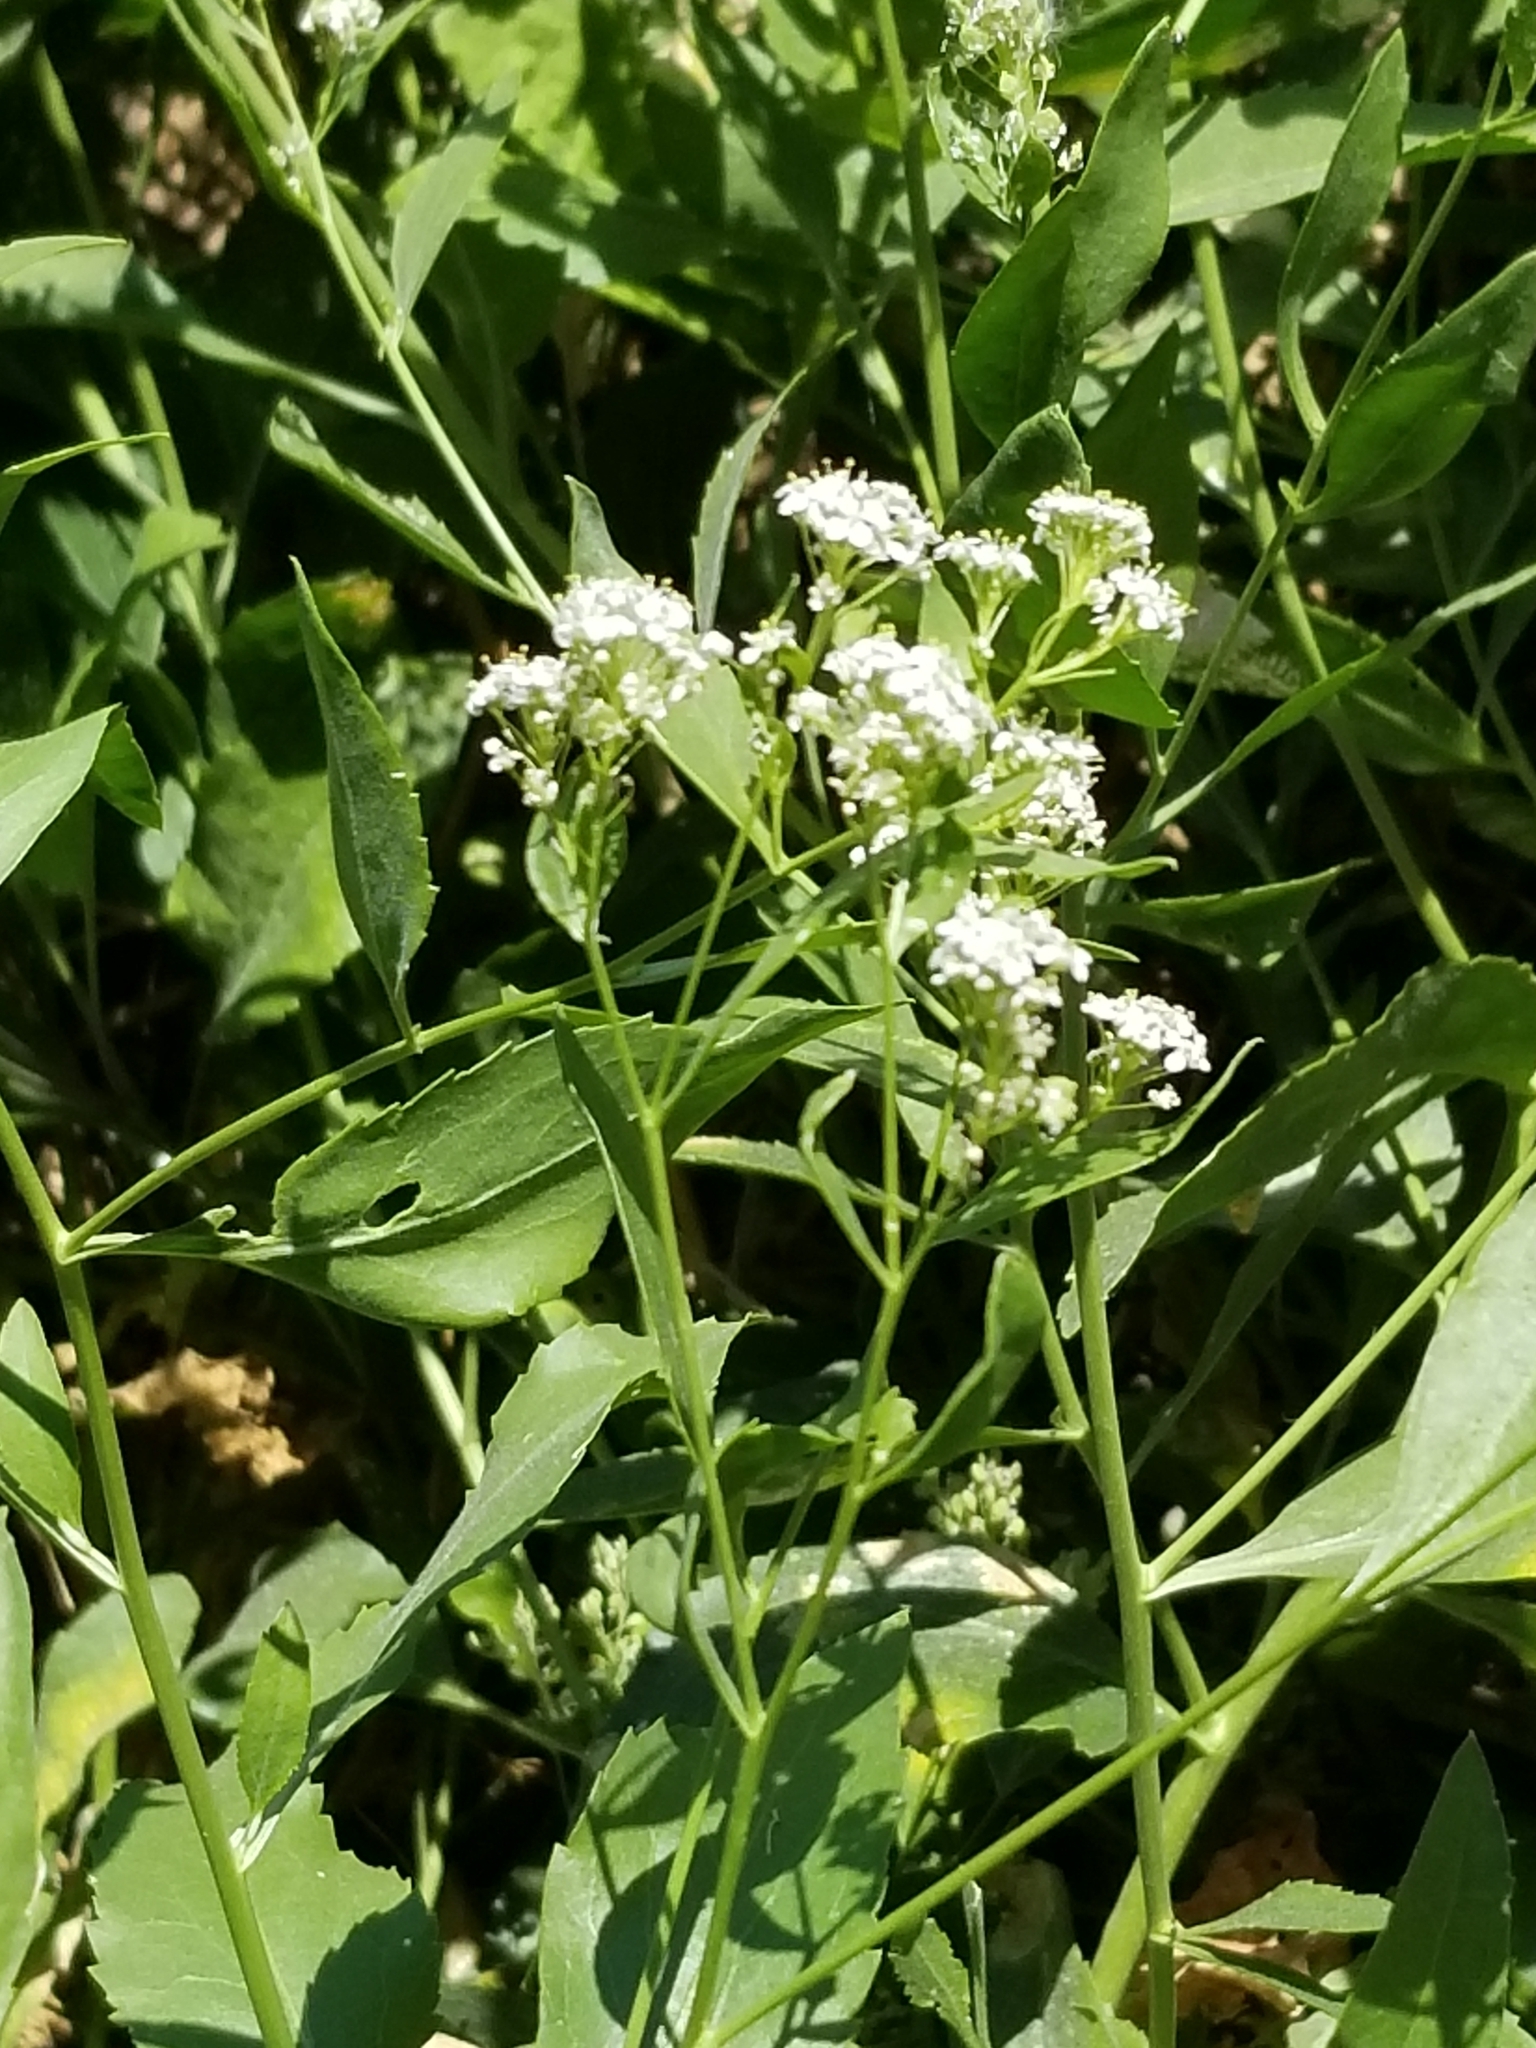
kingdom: Plantae
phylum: Tracheophyta
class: Magnoliopsida
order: Brassicales
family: Brassicaceae
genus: Lepidium
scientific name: Lepidium latifolium
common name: Dittander
